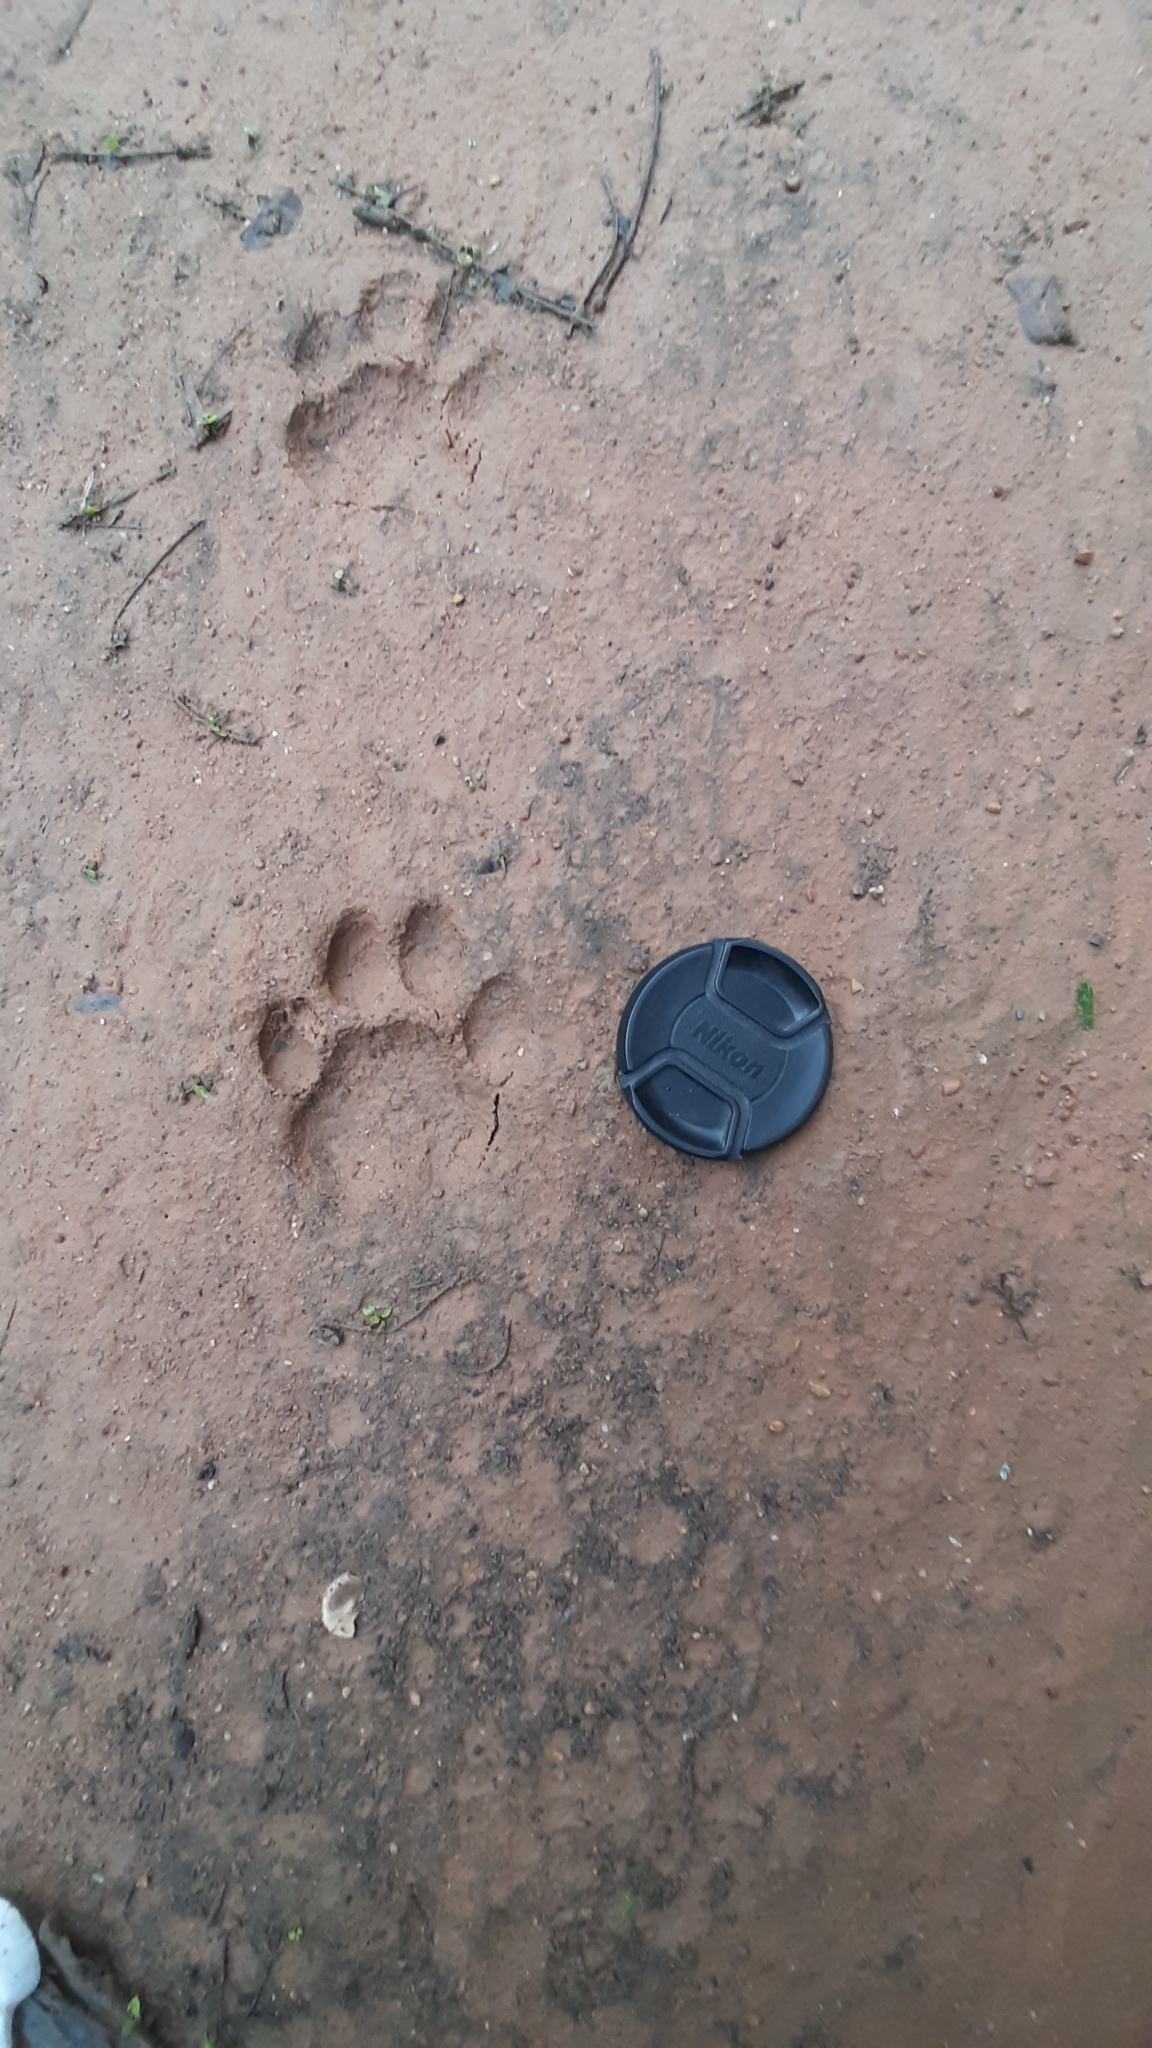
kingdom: Animalia
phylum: Chordata
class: Mammalia
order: Carnivora
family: Felidae
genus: Panthera
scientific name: Panthera pardus
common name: Leopard
